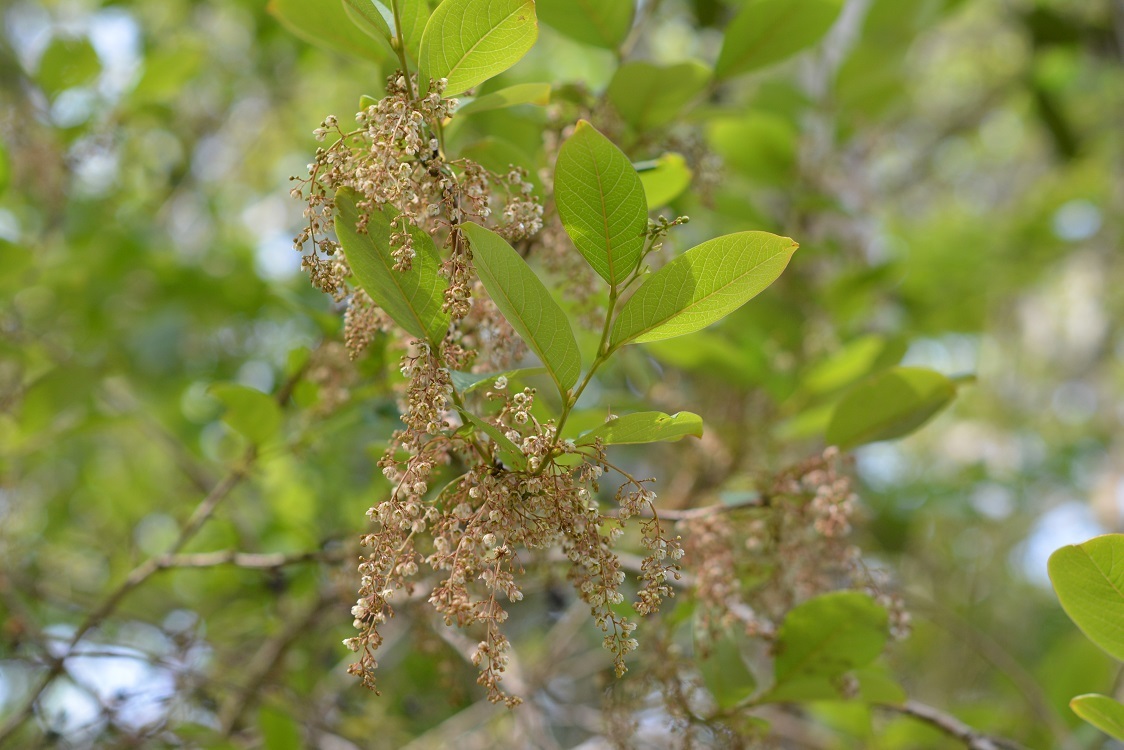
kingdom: Plantae
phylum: Tracheophyta
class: Magnoliopsida
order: Malpighiales
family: Phyllanthaceae
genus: Phyllanthus
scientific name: Phyllanthus grandifolius
